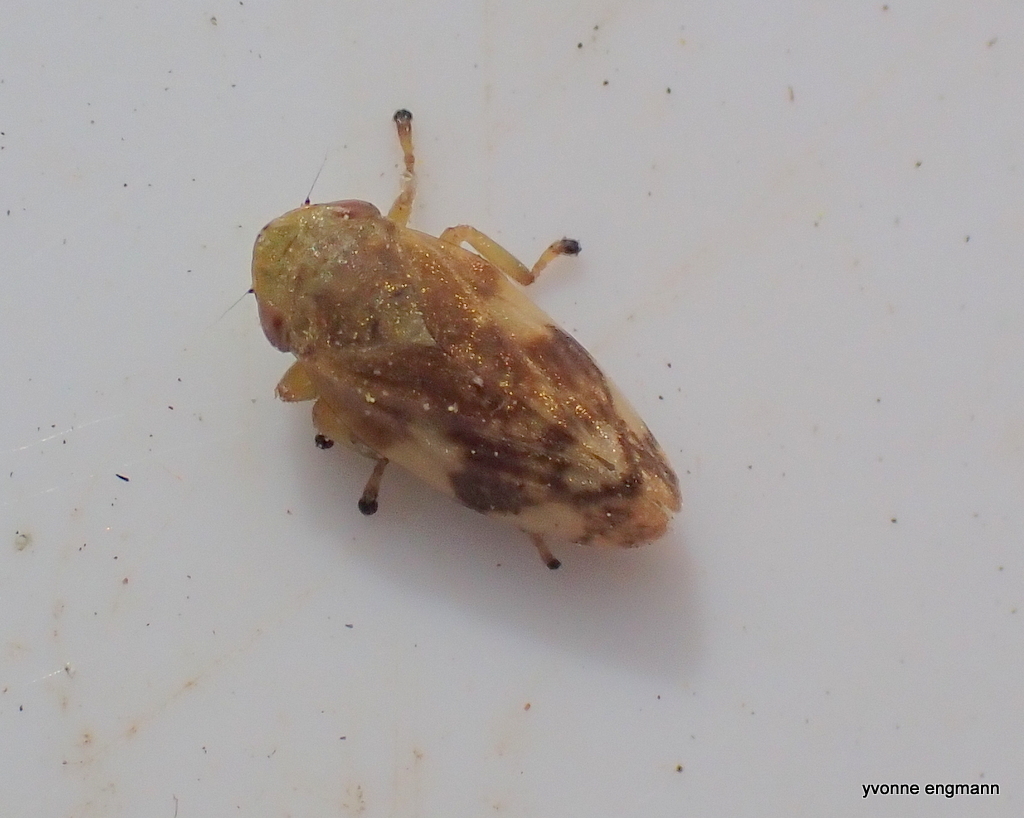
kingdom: Animalia
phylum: Arthropoda
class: Insecta
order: Hemiptera
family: Aphrophoridae
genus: Philaenus
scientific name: Philaenus spumarius
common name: Meadow spittlebug
